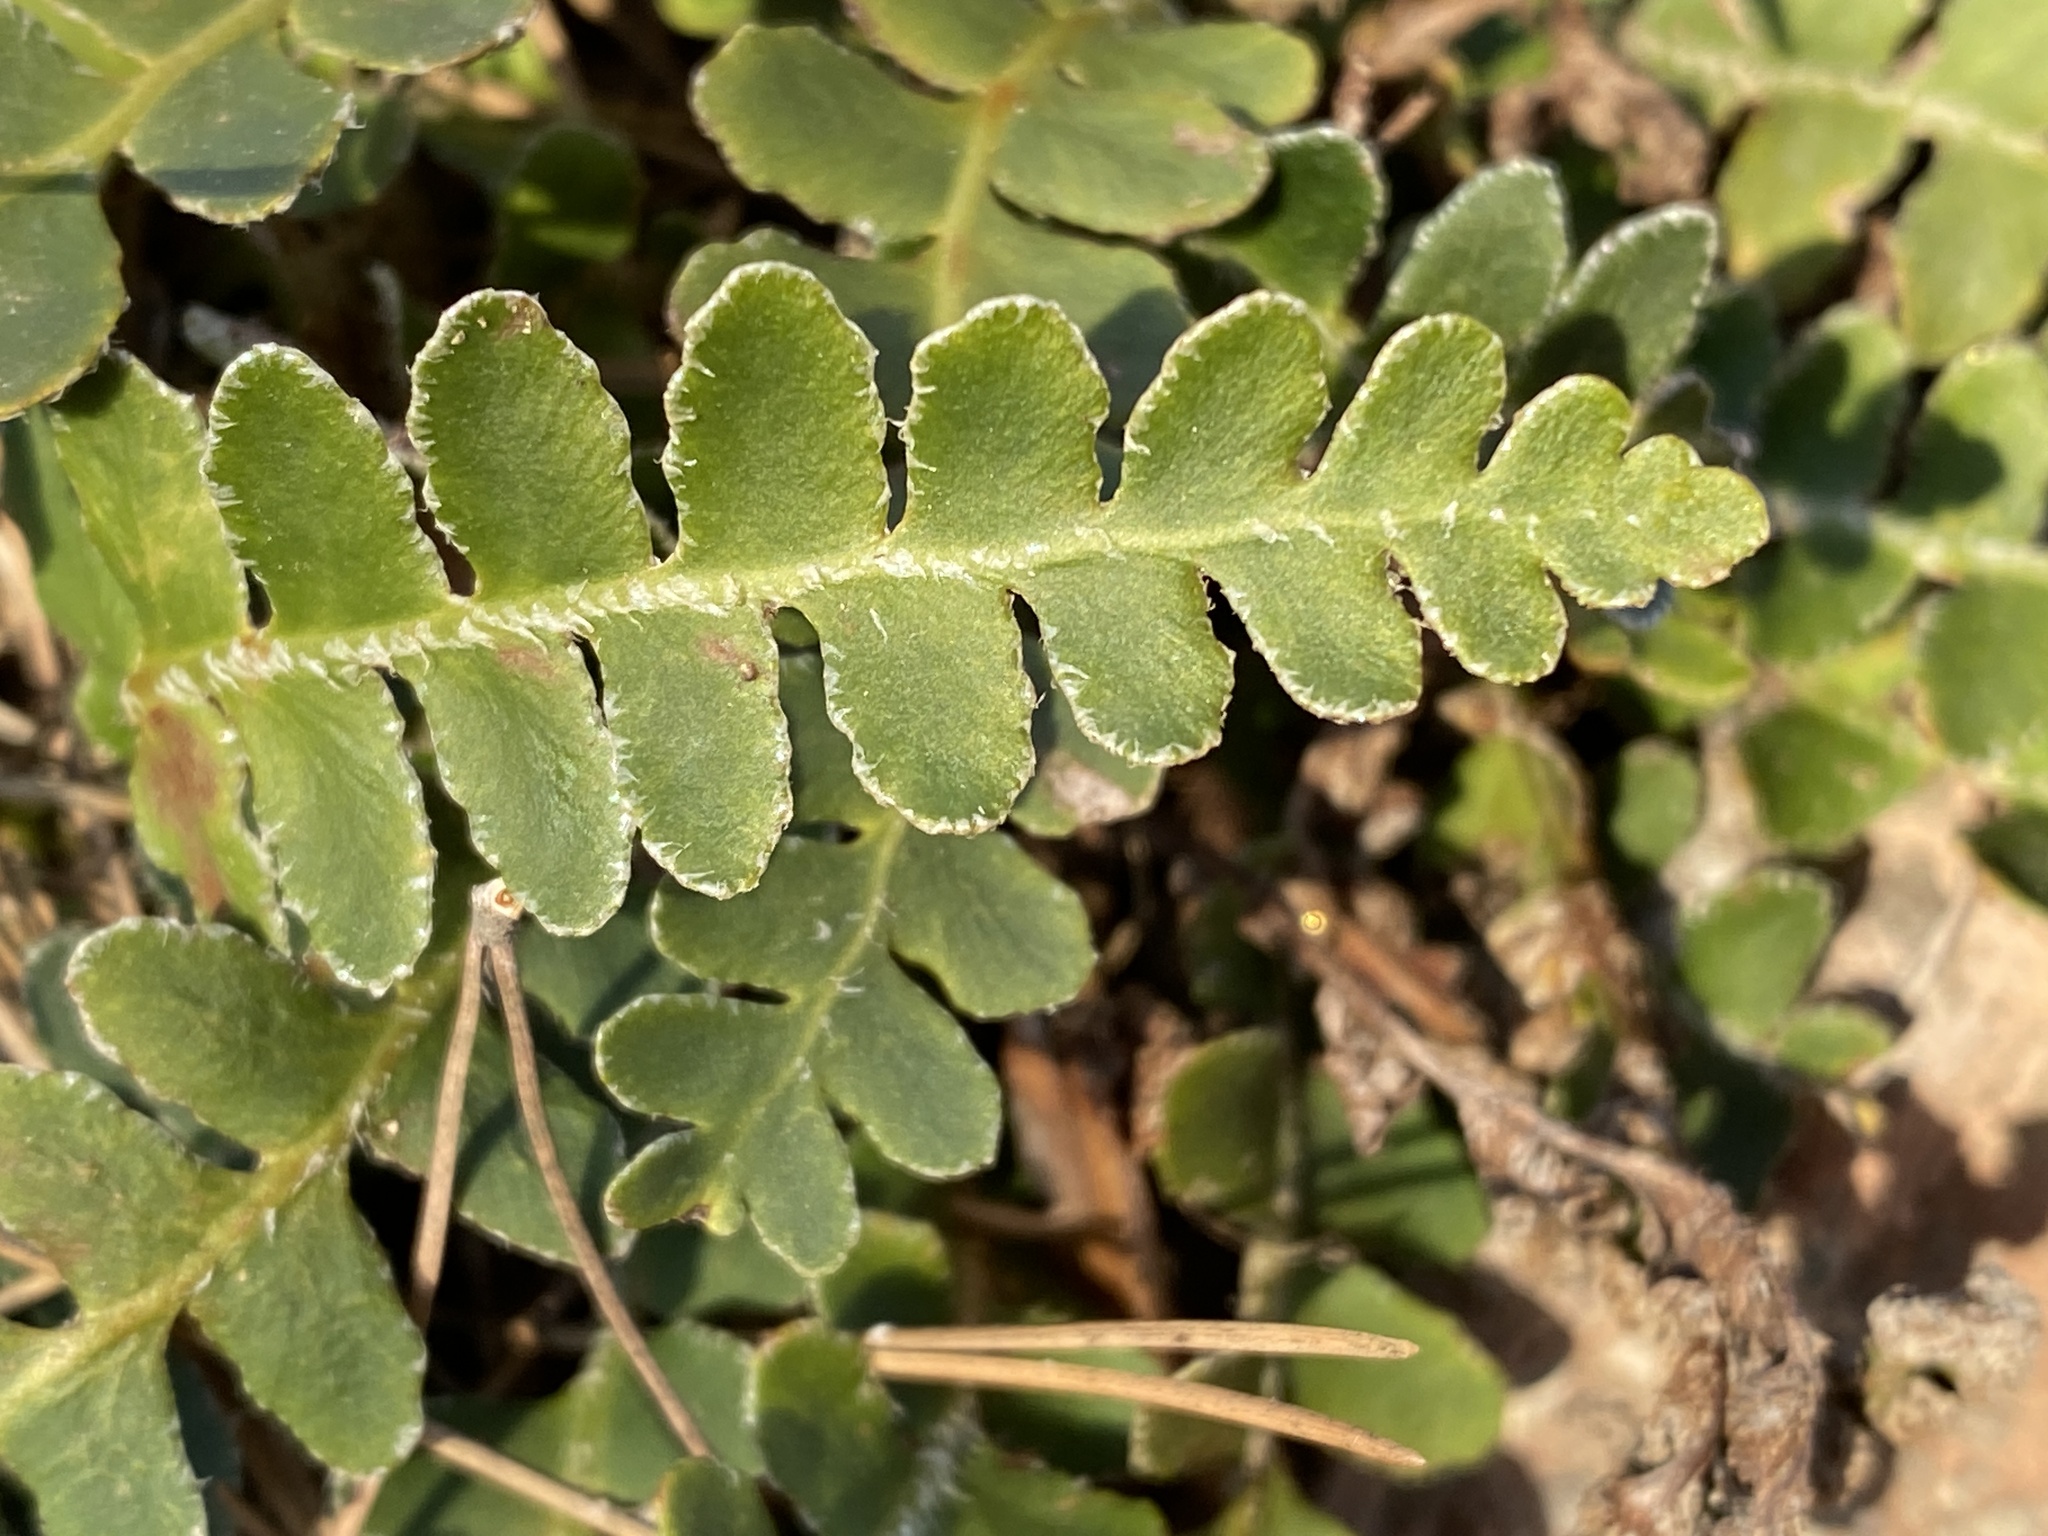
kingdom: Plantae
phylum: Tracheophyta
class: Polypodiopsida
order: Polypodiales
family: Aspleniaceae
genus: Asplenium
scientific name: Asplenium ceterach
